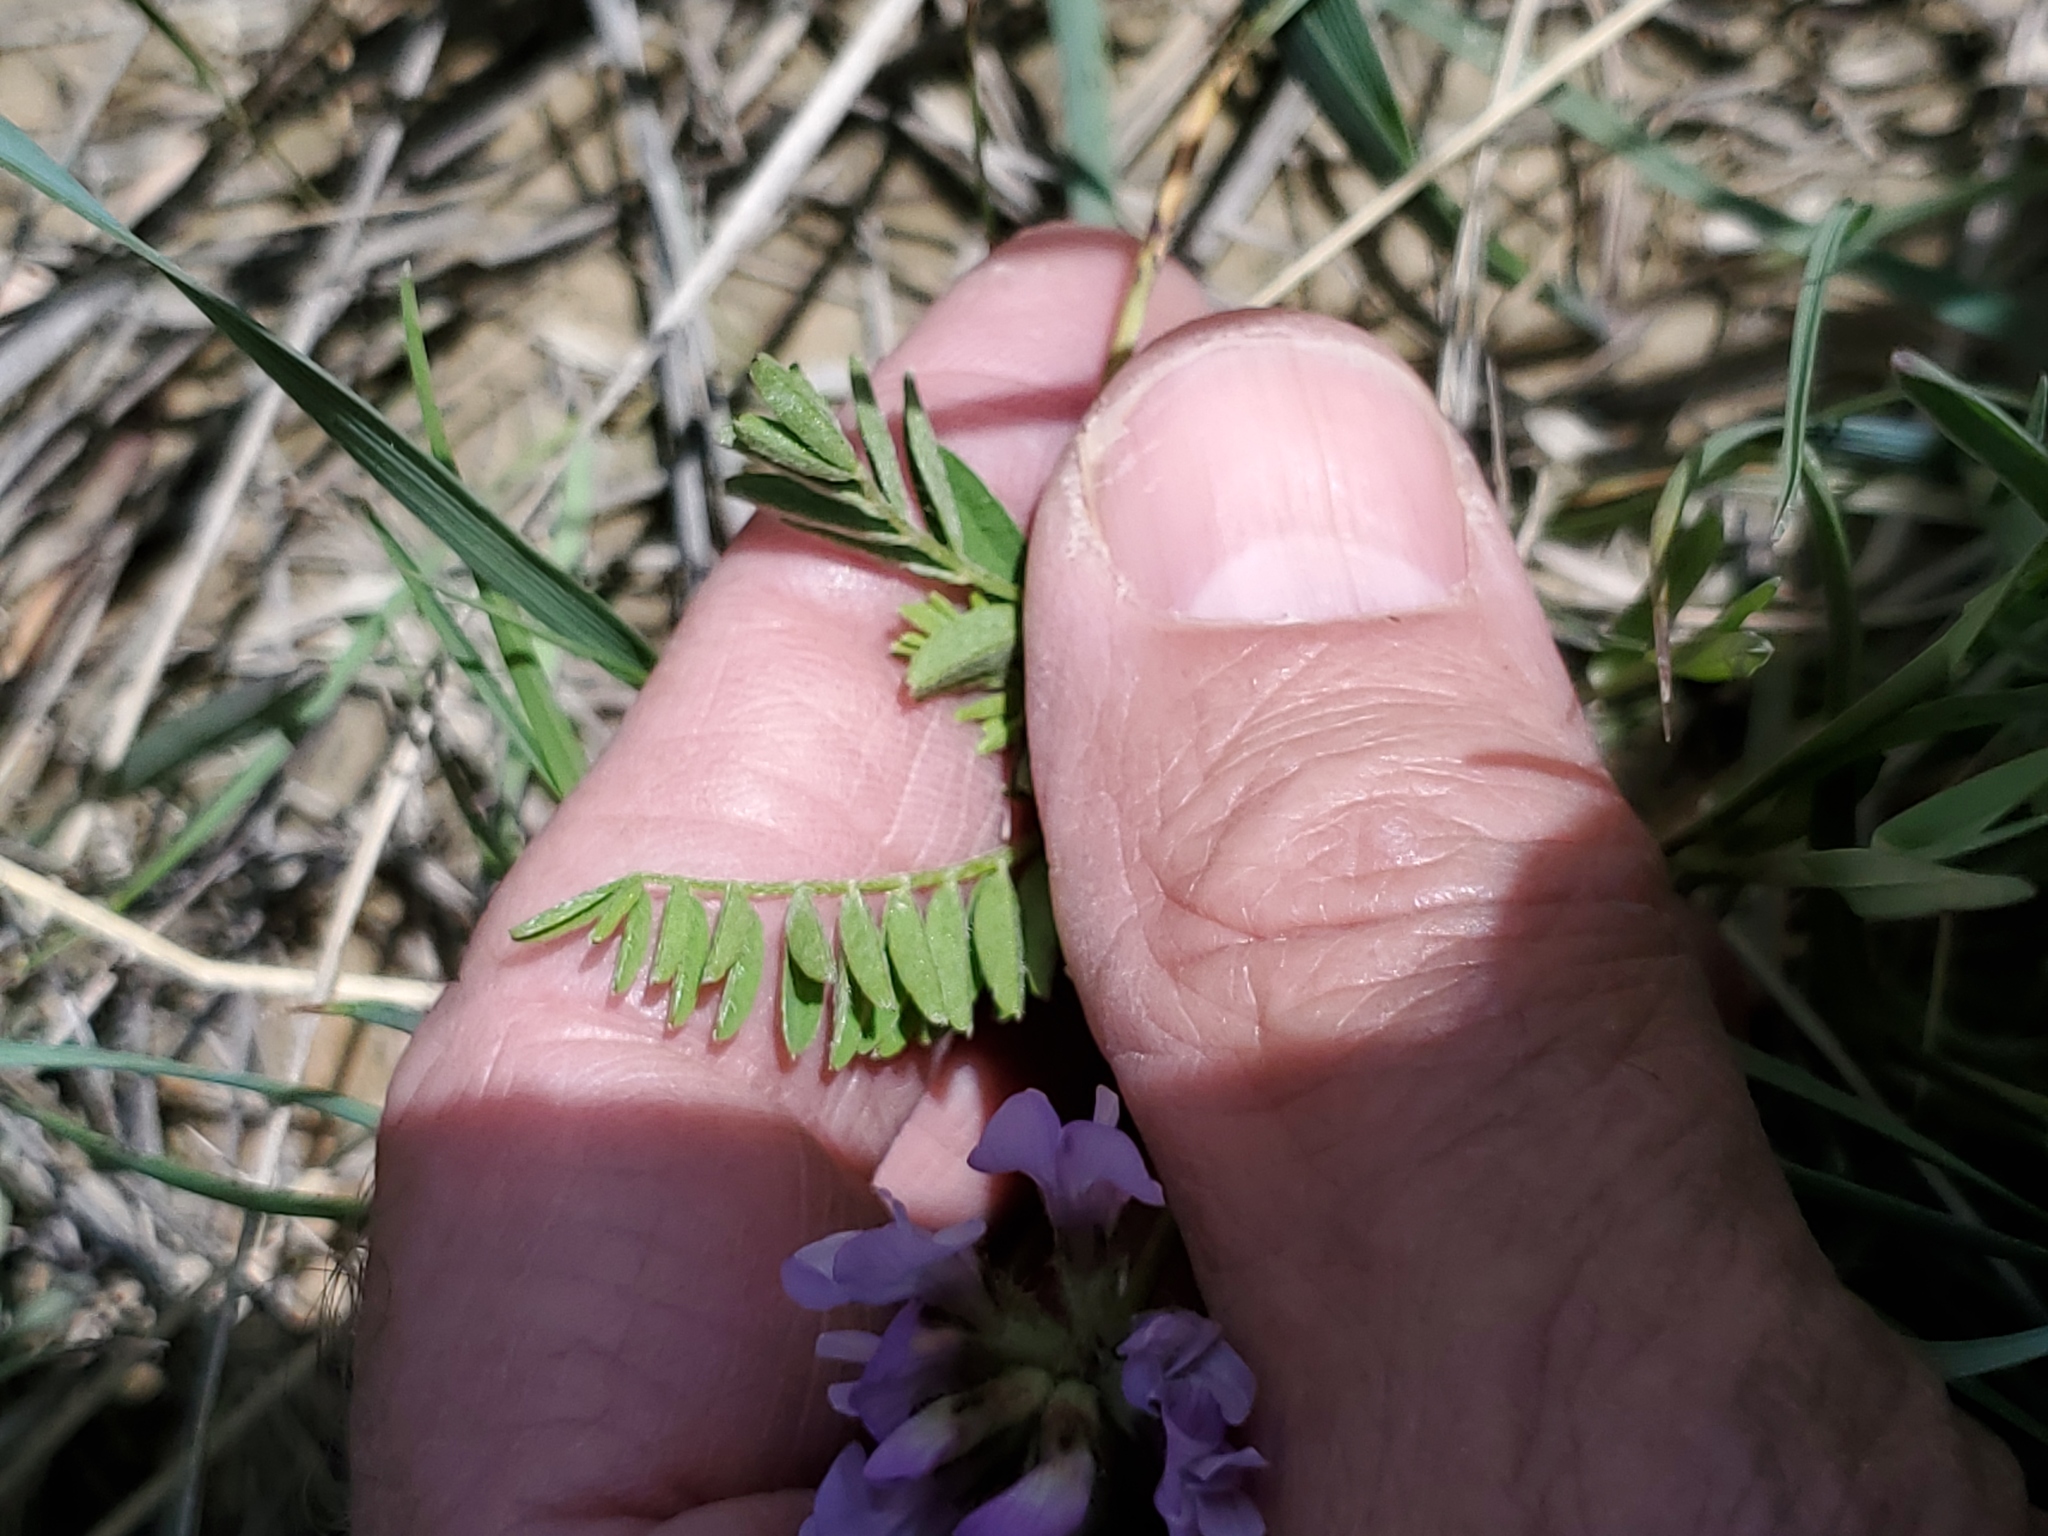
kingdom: Plantae
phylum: Tracheophyta
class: Magnoliopsida
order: Fabales
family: Fabaceae
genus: Astragalus
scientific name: Astragalus agrestis
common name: Field milk-vetch
